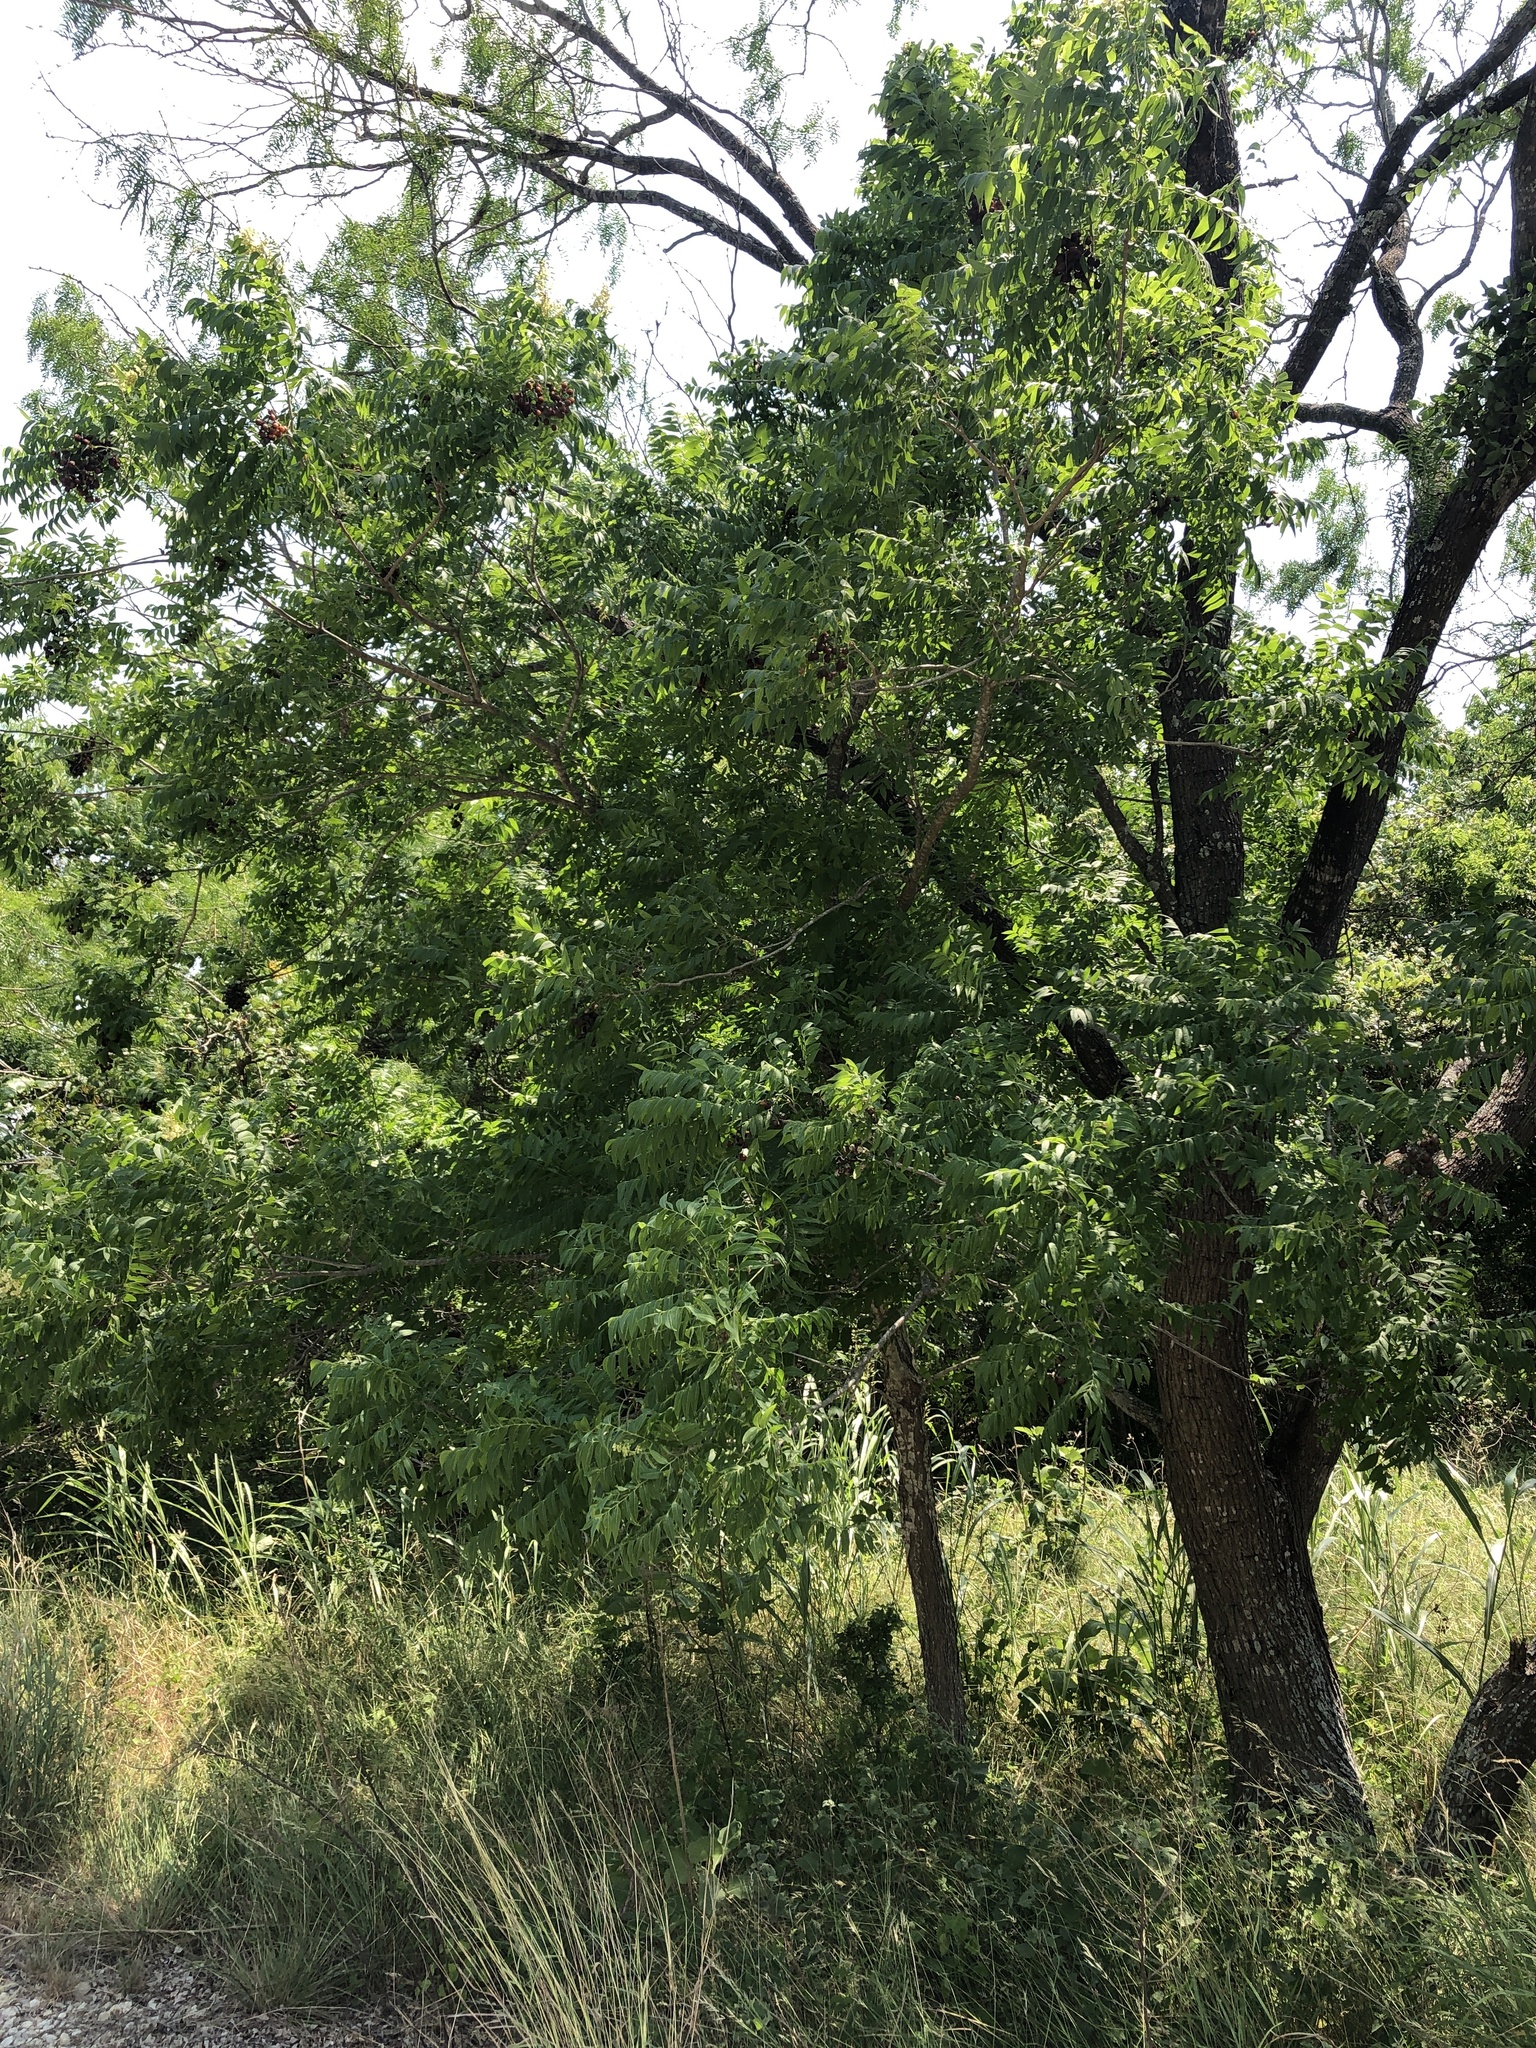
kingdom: Plantae
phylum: Tracheophyta
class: Magnoliopsida
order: Sapindales
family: Sapindaceae
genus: Sapindus
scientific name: Sapindus drummondii
